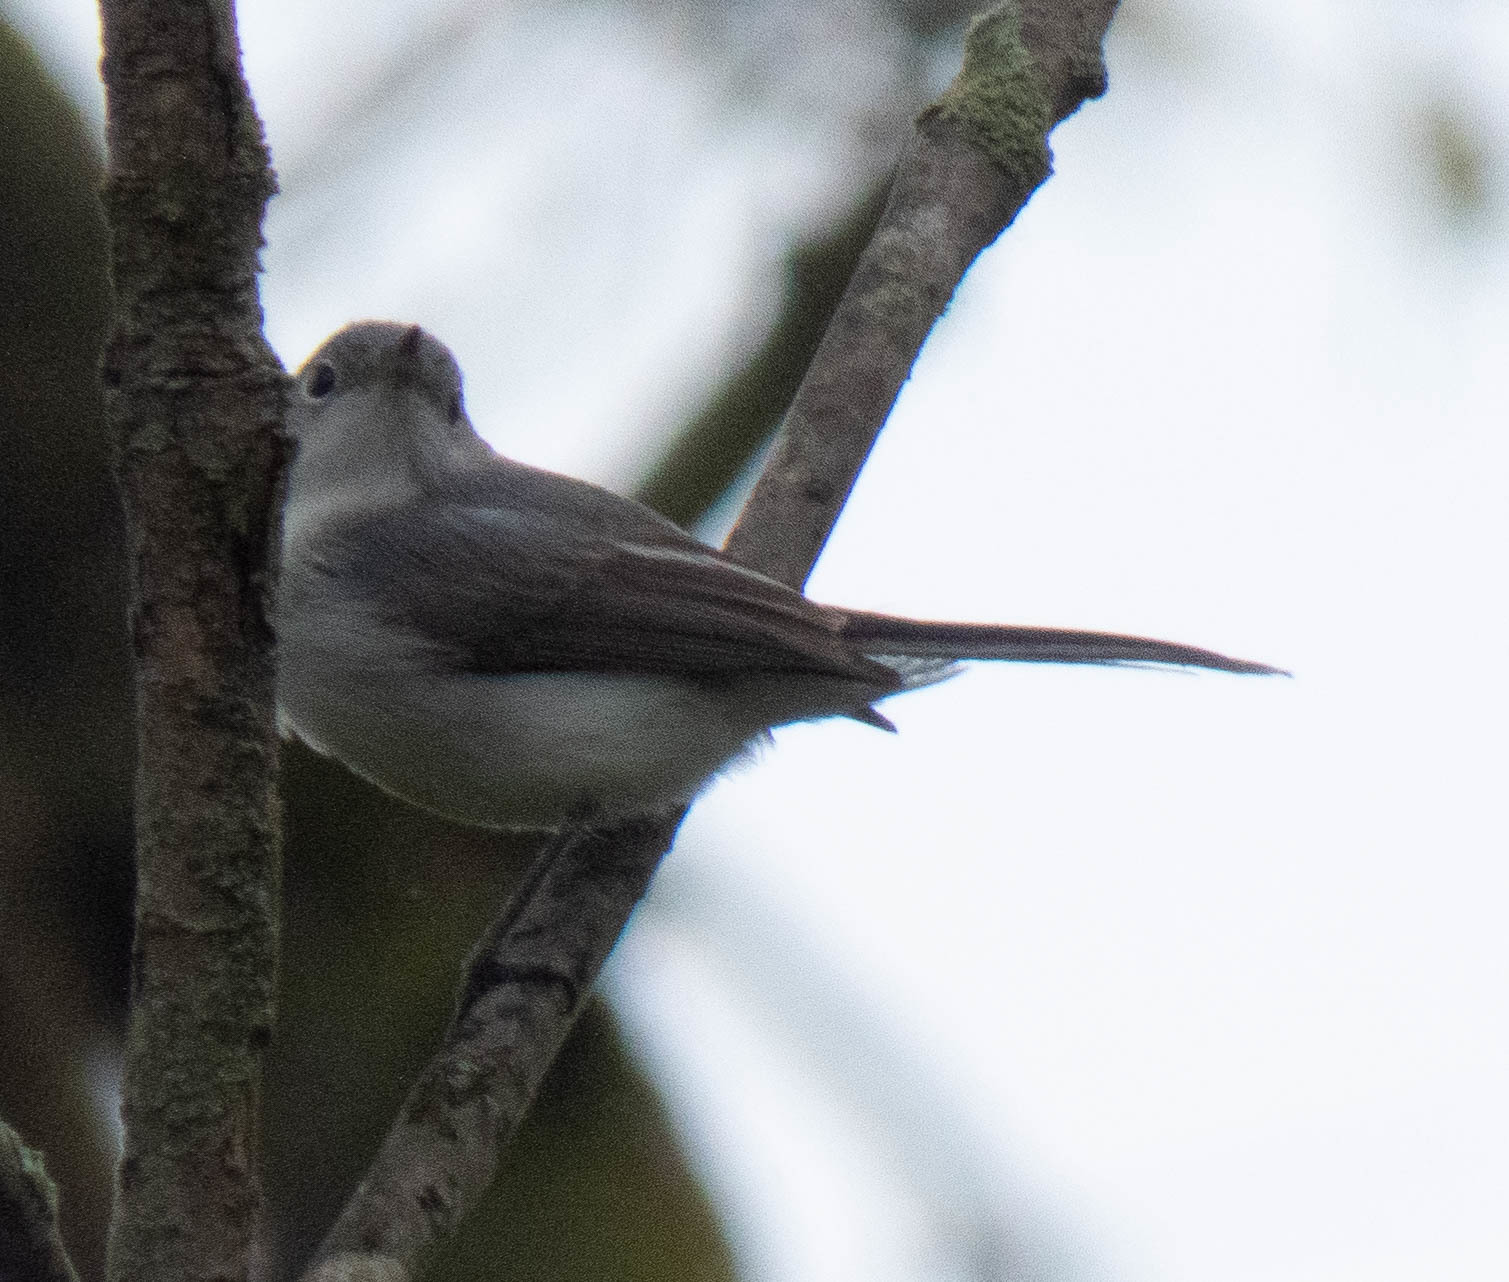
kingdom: Animalia
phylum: Chordata
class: Aves
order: Passeriformes
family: Polioptilidae
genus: Polioptila
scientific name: Polioptila caerulea
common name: Blue-gray gnatcatcher
